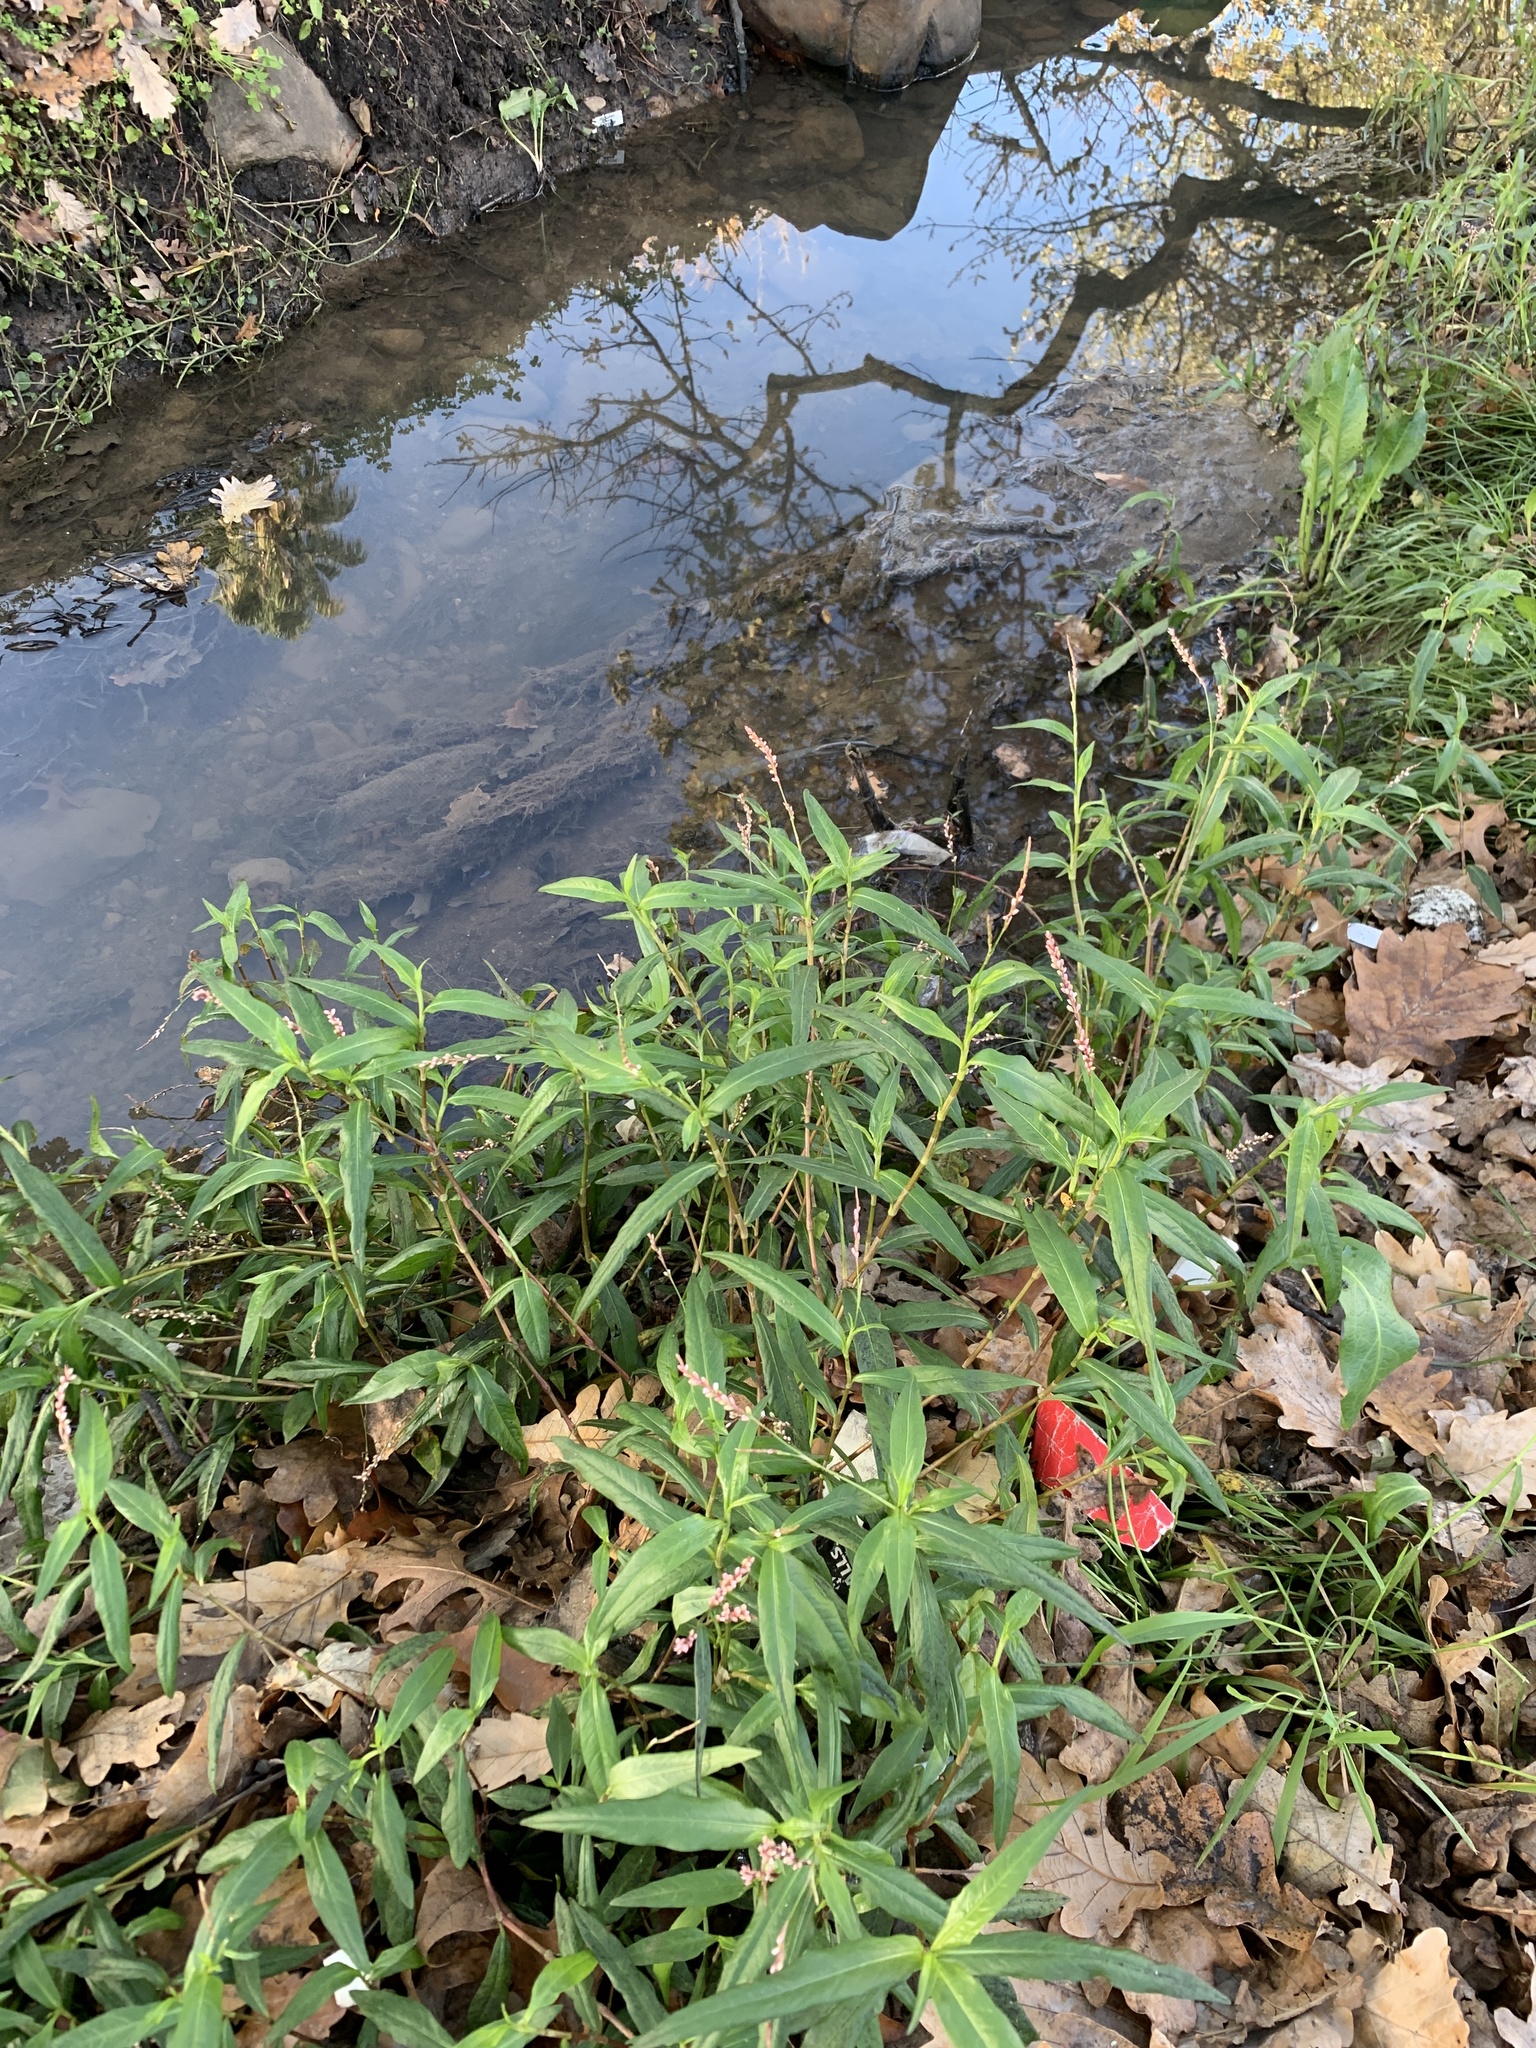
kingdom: Plantae
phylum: Tracheophyta
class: Magnoliopsida
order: Caryophyllales
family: Polygonaceae
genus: Persicaria
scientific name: Persicaria decipiens
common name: Willow-weed
